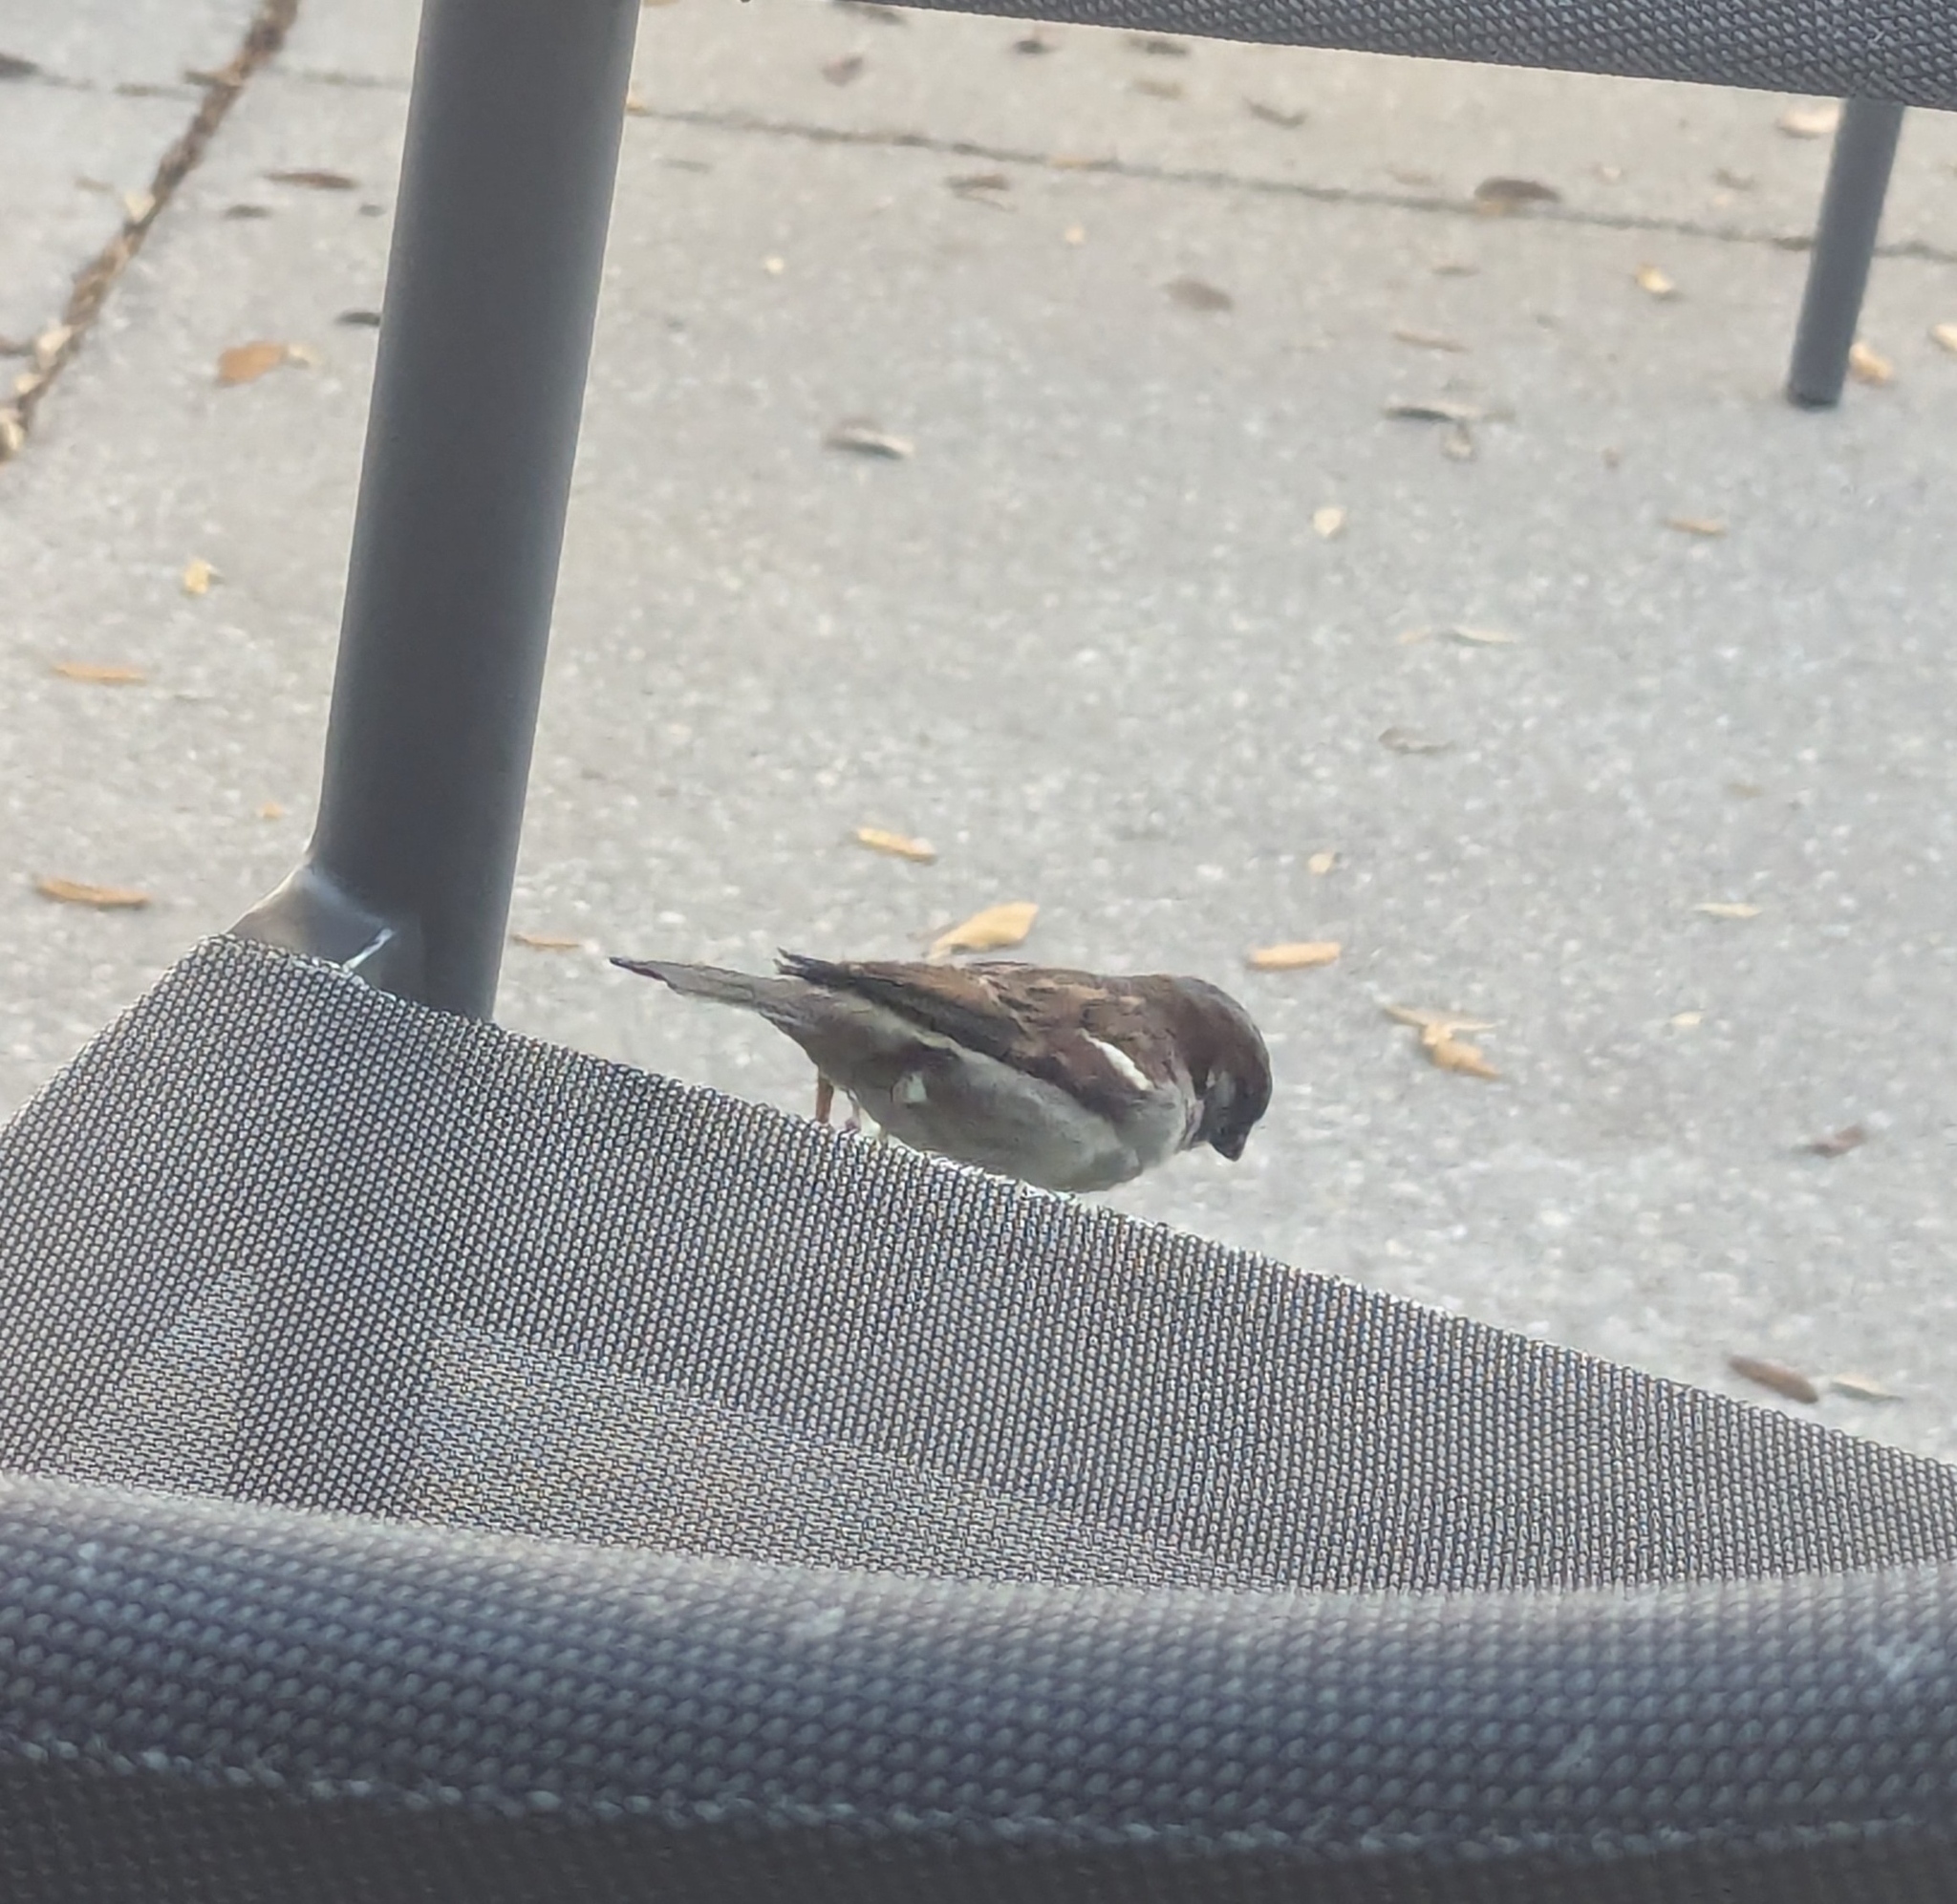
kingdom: Animalia
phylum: Chordata
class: Aves
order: Passeriformes
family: Passeridae
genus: Passer
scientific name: Passer domesticus
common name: House sparrow
